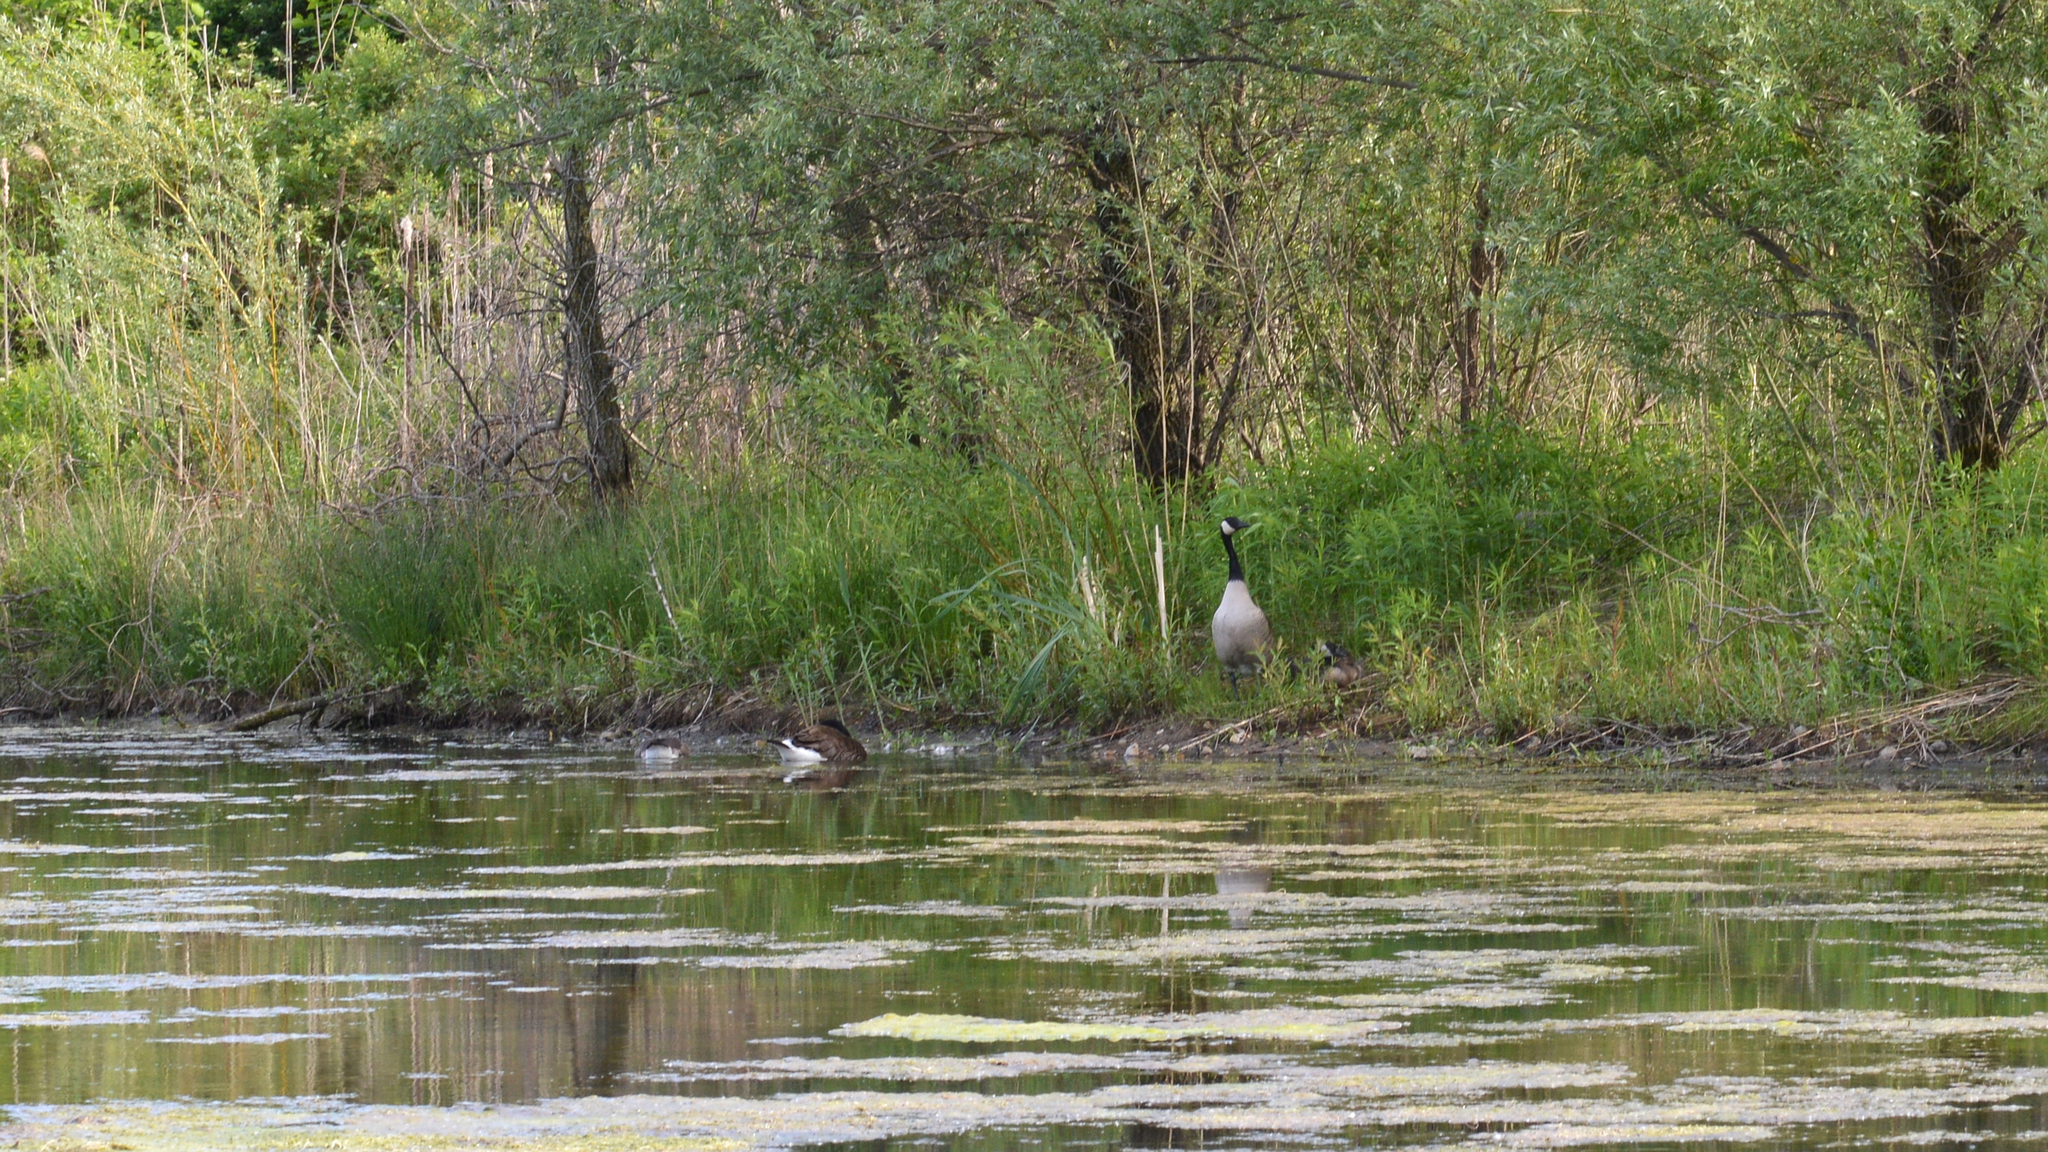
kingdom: Animalia
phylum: Chordata
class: Aves
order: Anseriformes
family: Anatidae
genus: Branta
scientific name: Branta canadensis
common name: Canada goose
